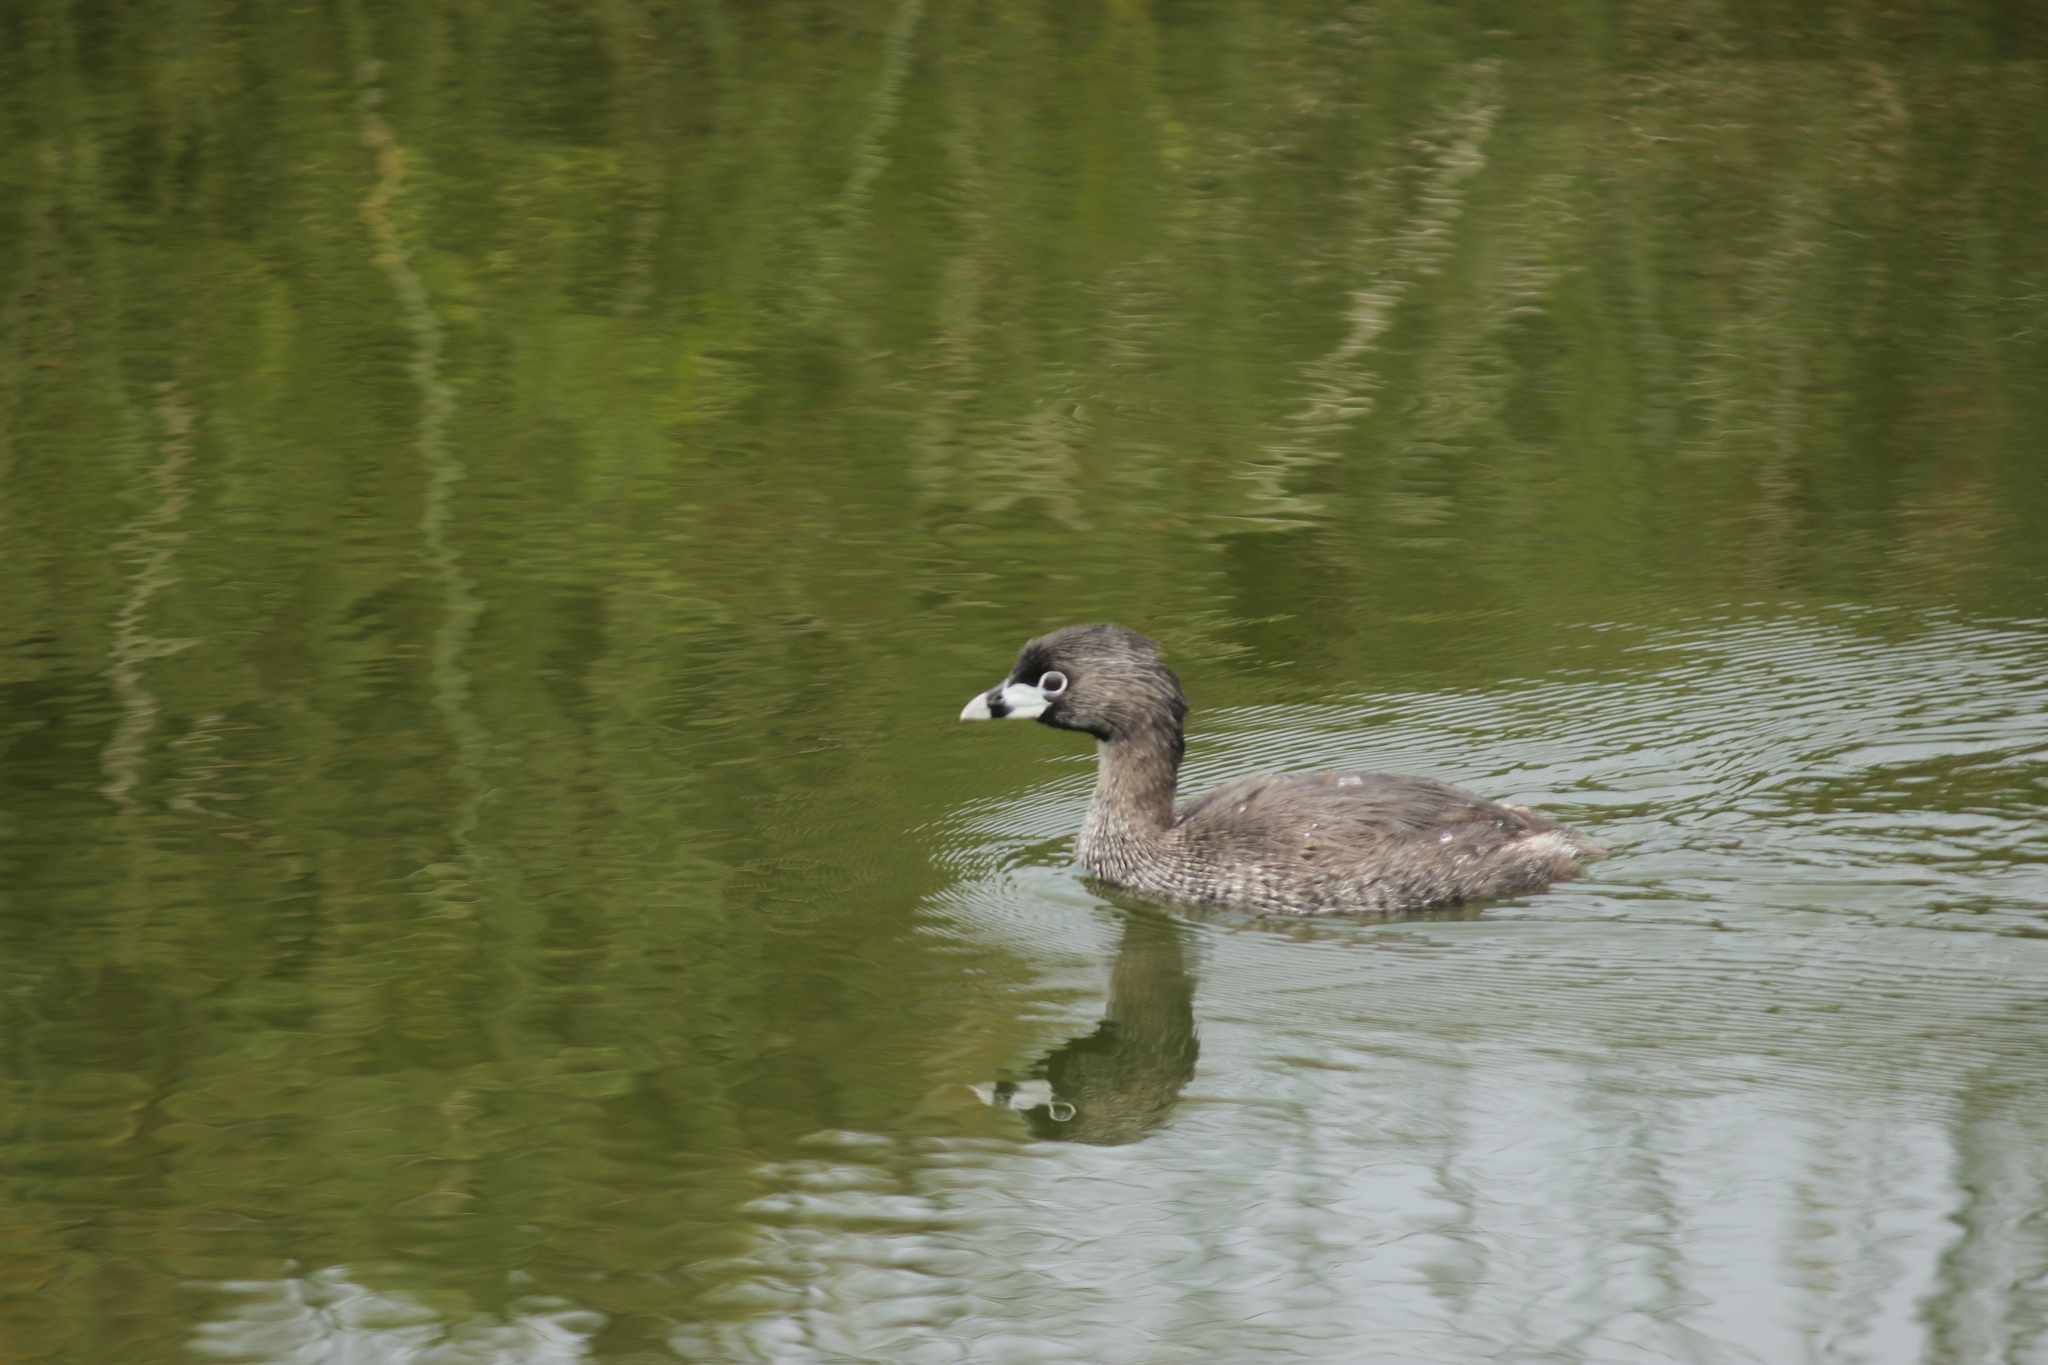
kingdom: Animalia
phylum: Chordata
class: Aves
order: Podicipediformes
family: Podicipedidae
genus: Podilymbus
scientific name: Podilymbus podiceps
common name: Pied-billed grebe
